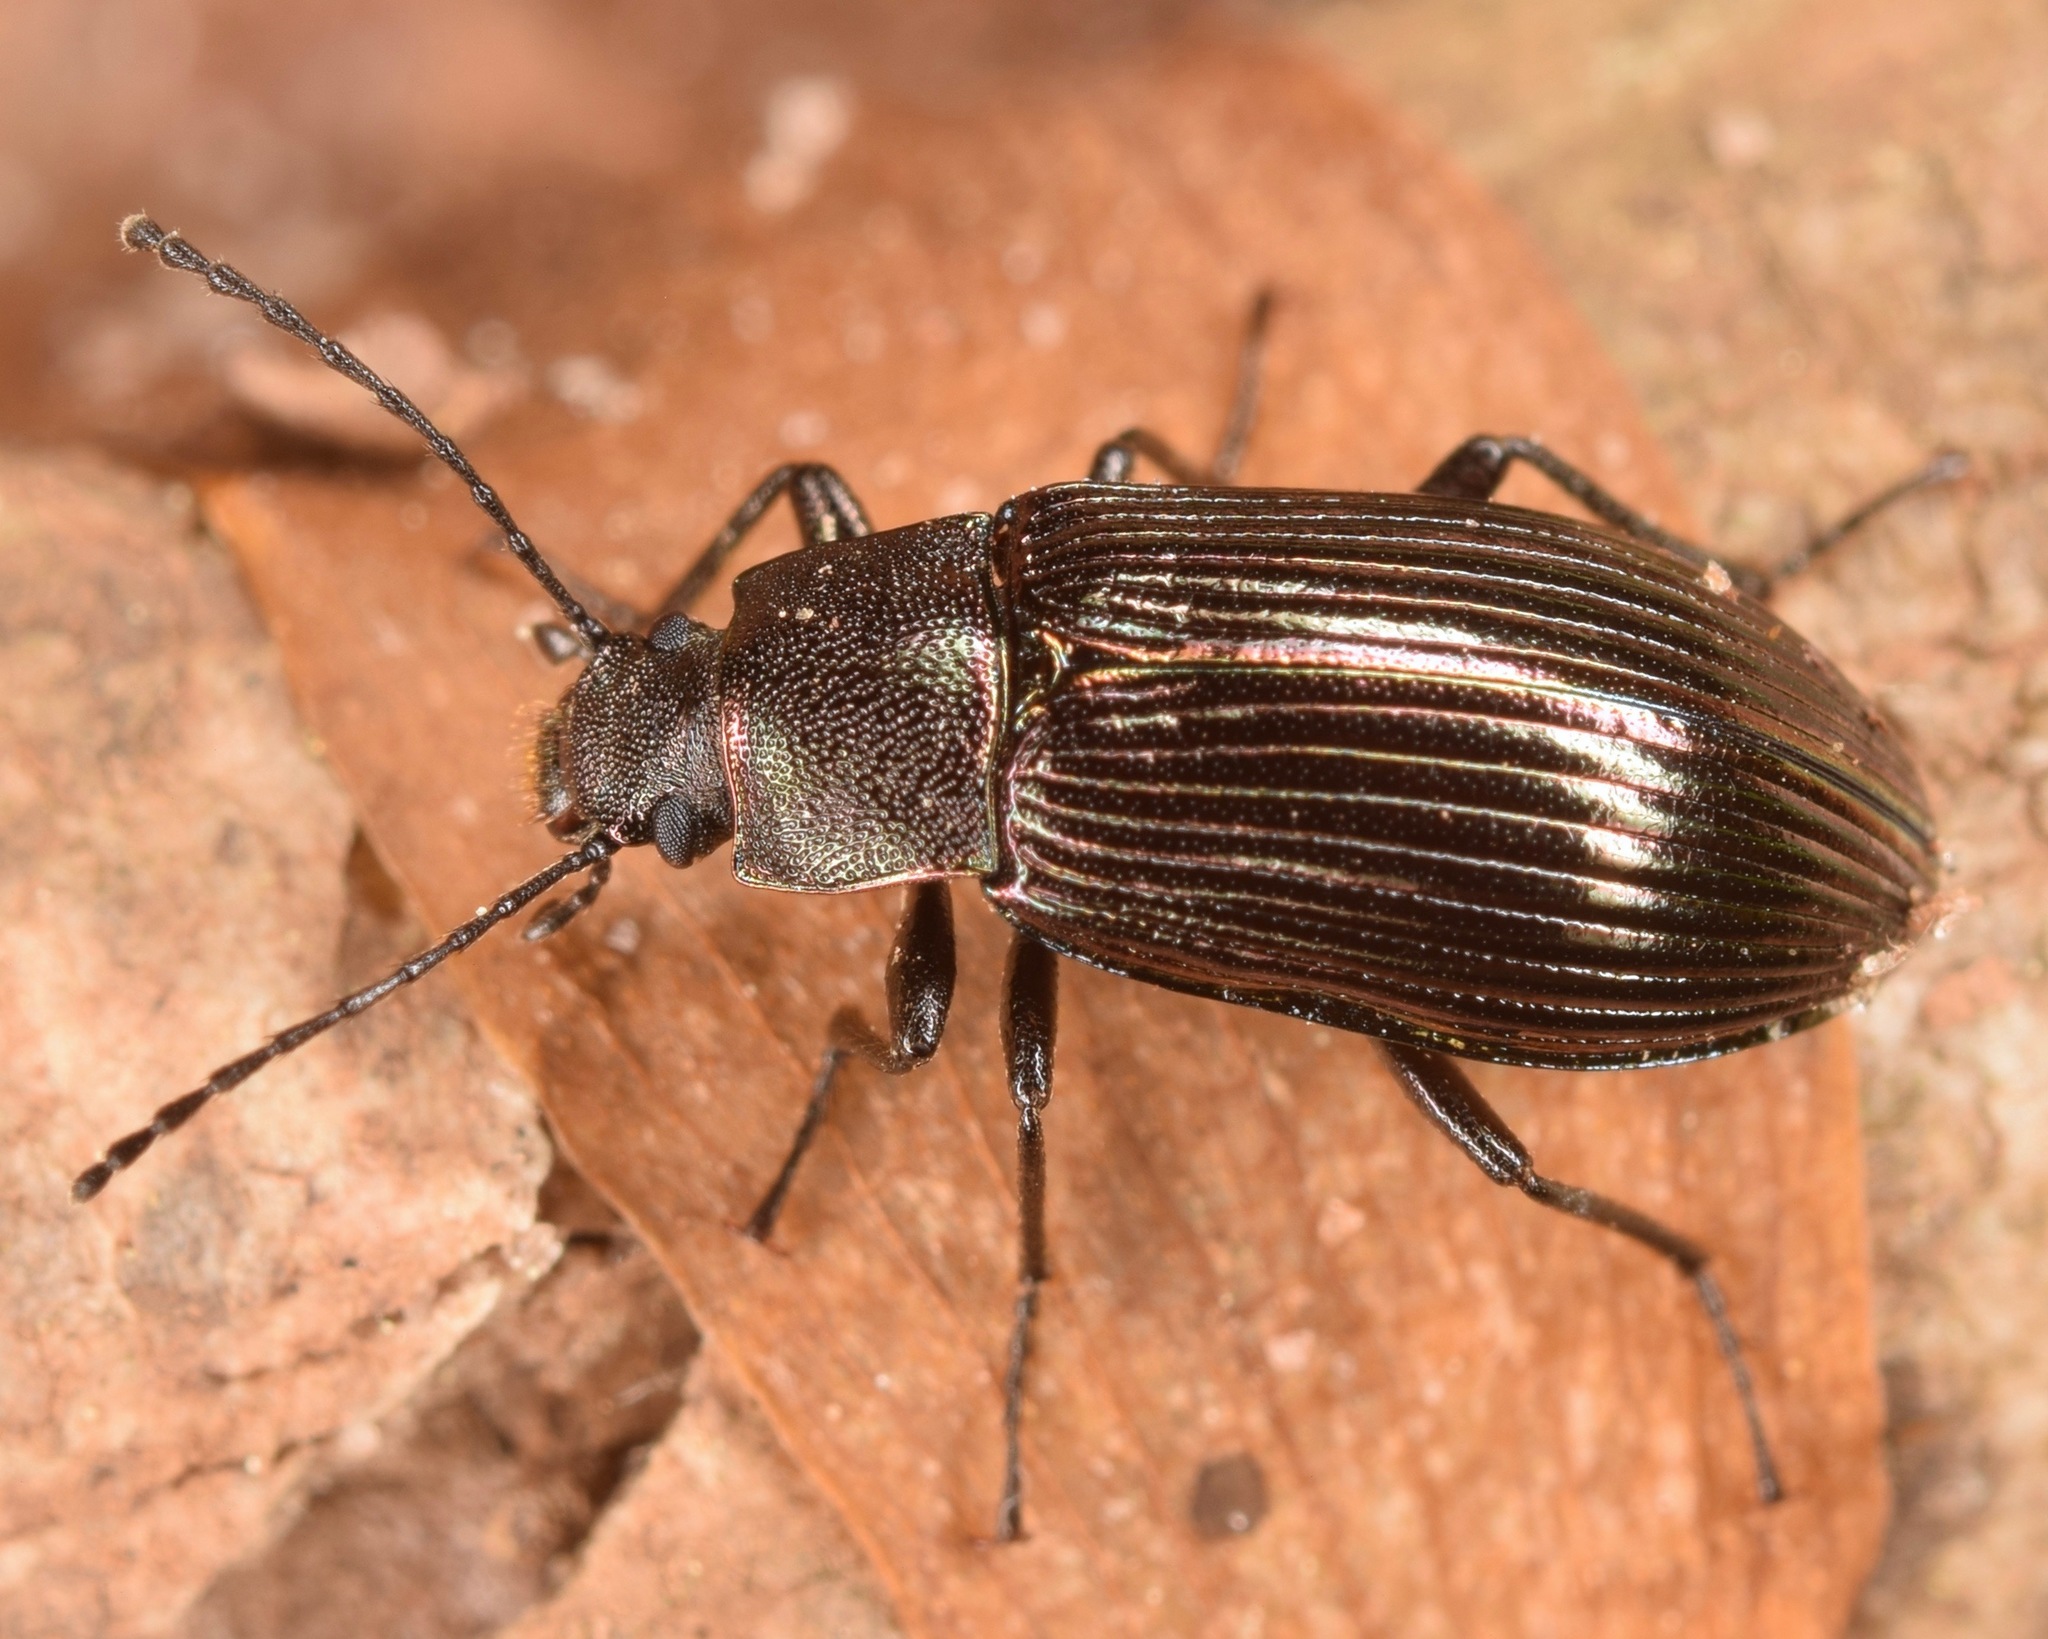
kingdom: Animalia
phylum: Arthropoda
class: Insecta
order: Coleoptera
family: Tenebrionidae
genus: Tarpela
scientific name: Tarpela venusta
